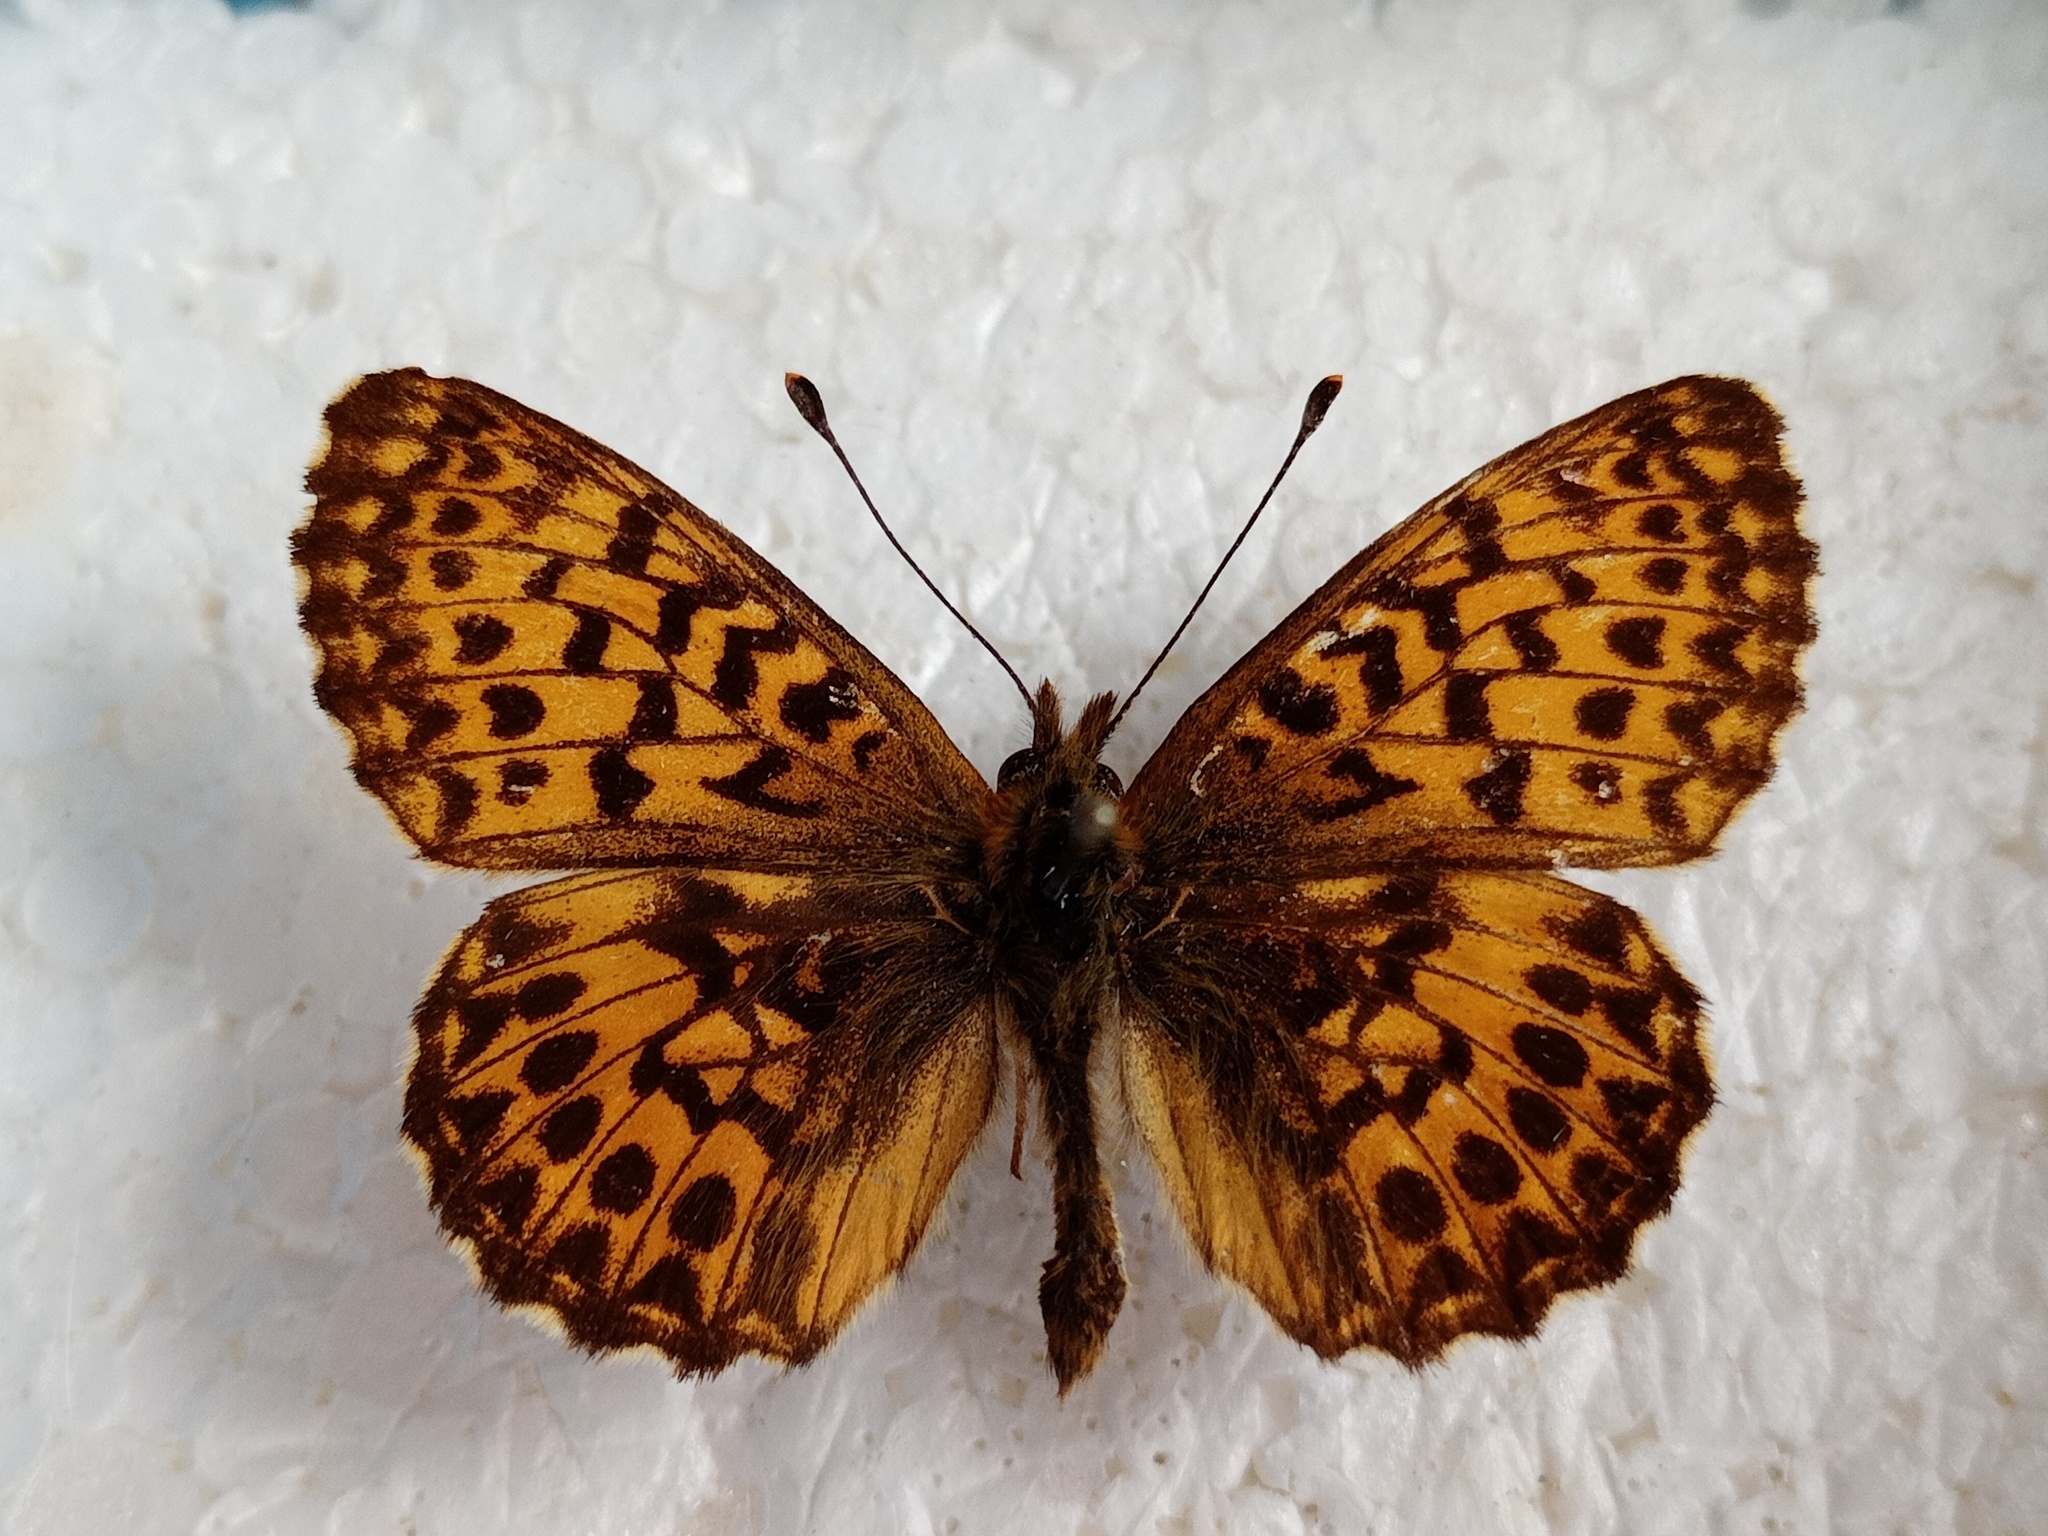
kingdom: Animalia
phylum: Arthropoda
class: Insecta
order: Lepidoptera
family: Nymphalidae
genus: Boloria
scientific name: Boloria titania
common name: Titania's fritillary
